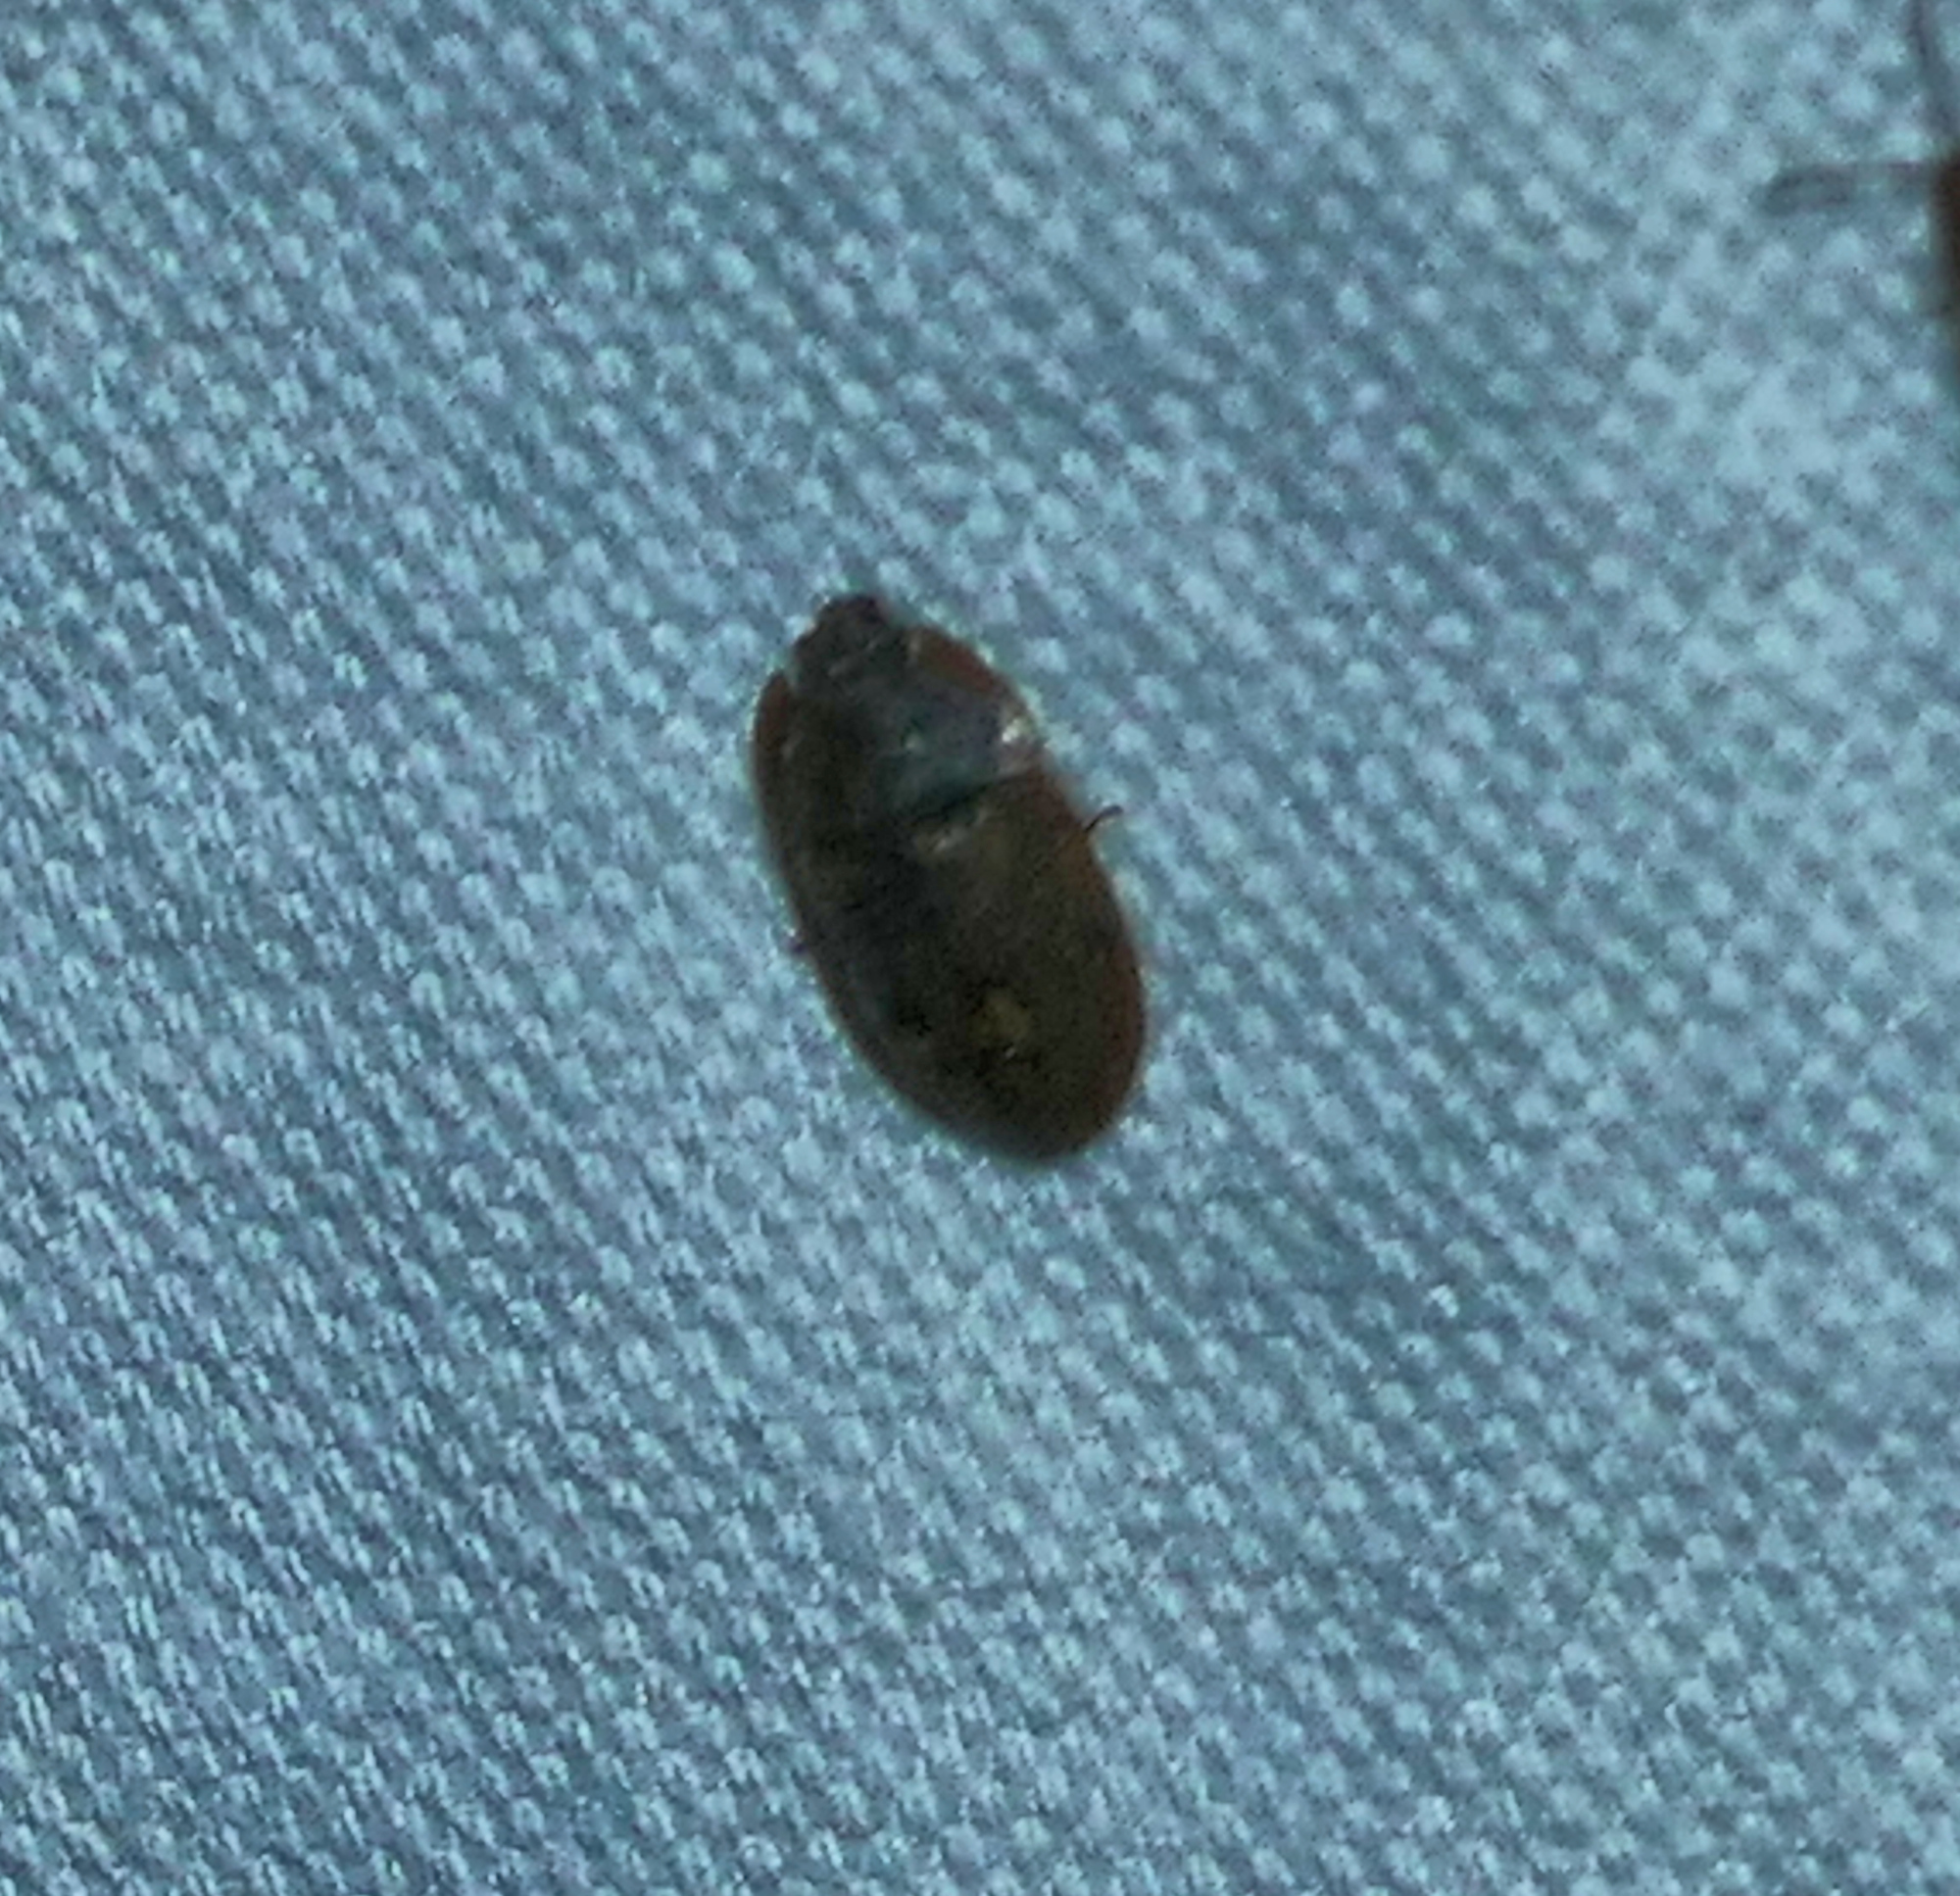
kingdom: Animalia
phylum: Arthropoda
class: Insecta
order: Coleoptera
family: Nitidulidae
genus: Lobiopa
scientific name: Lobiopa falli
